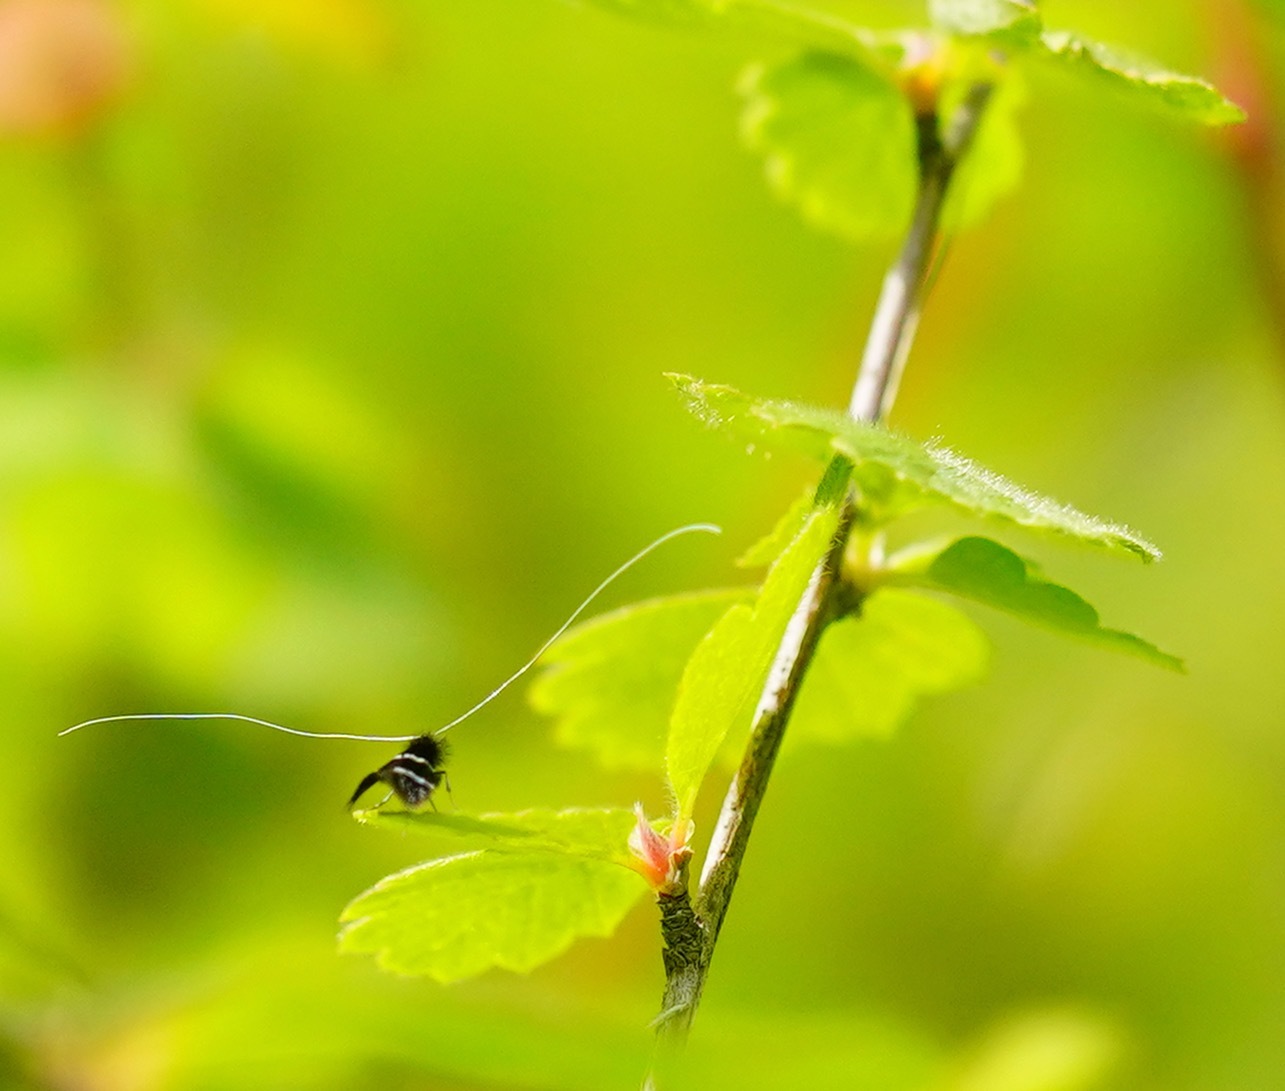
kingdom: Animalia
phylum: Arthropoda
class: Insecta
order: Lepidoptera
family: Adelidae
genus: Adela
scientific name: Adela septentrionella
